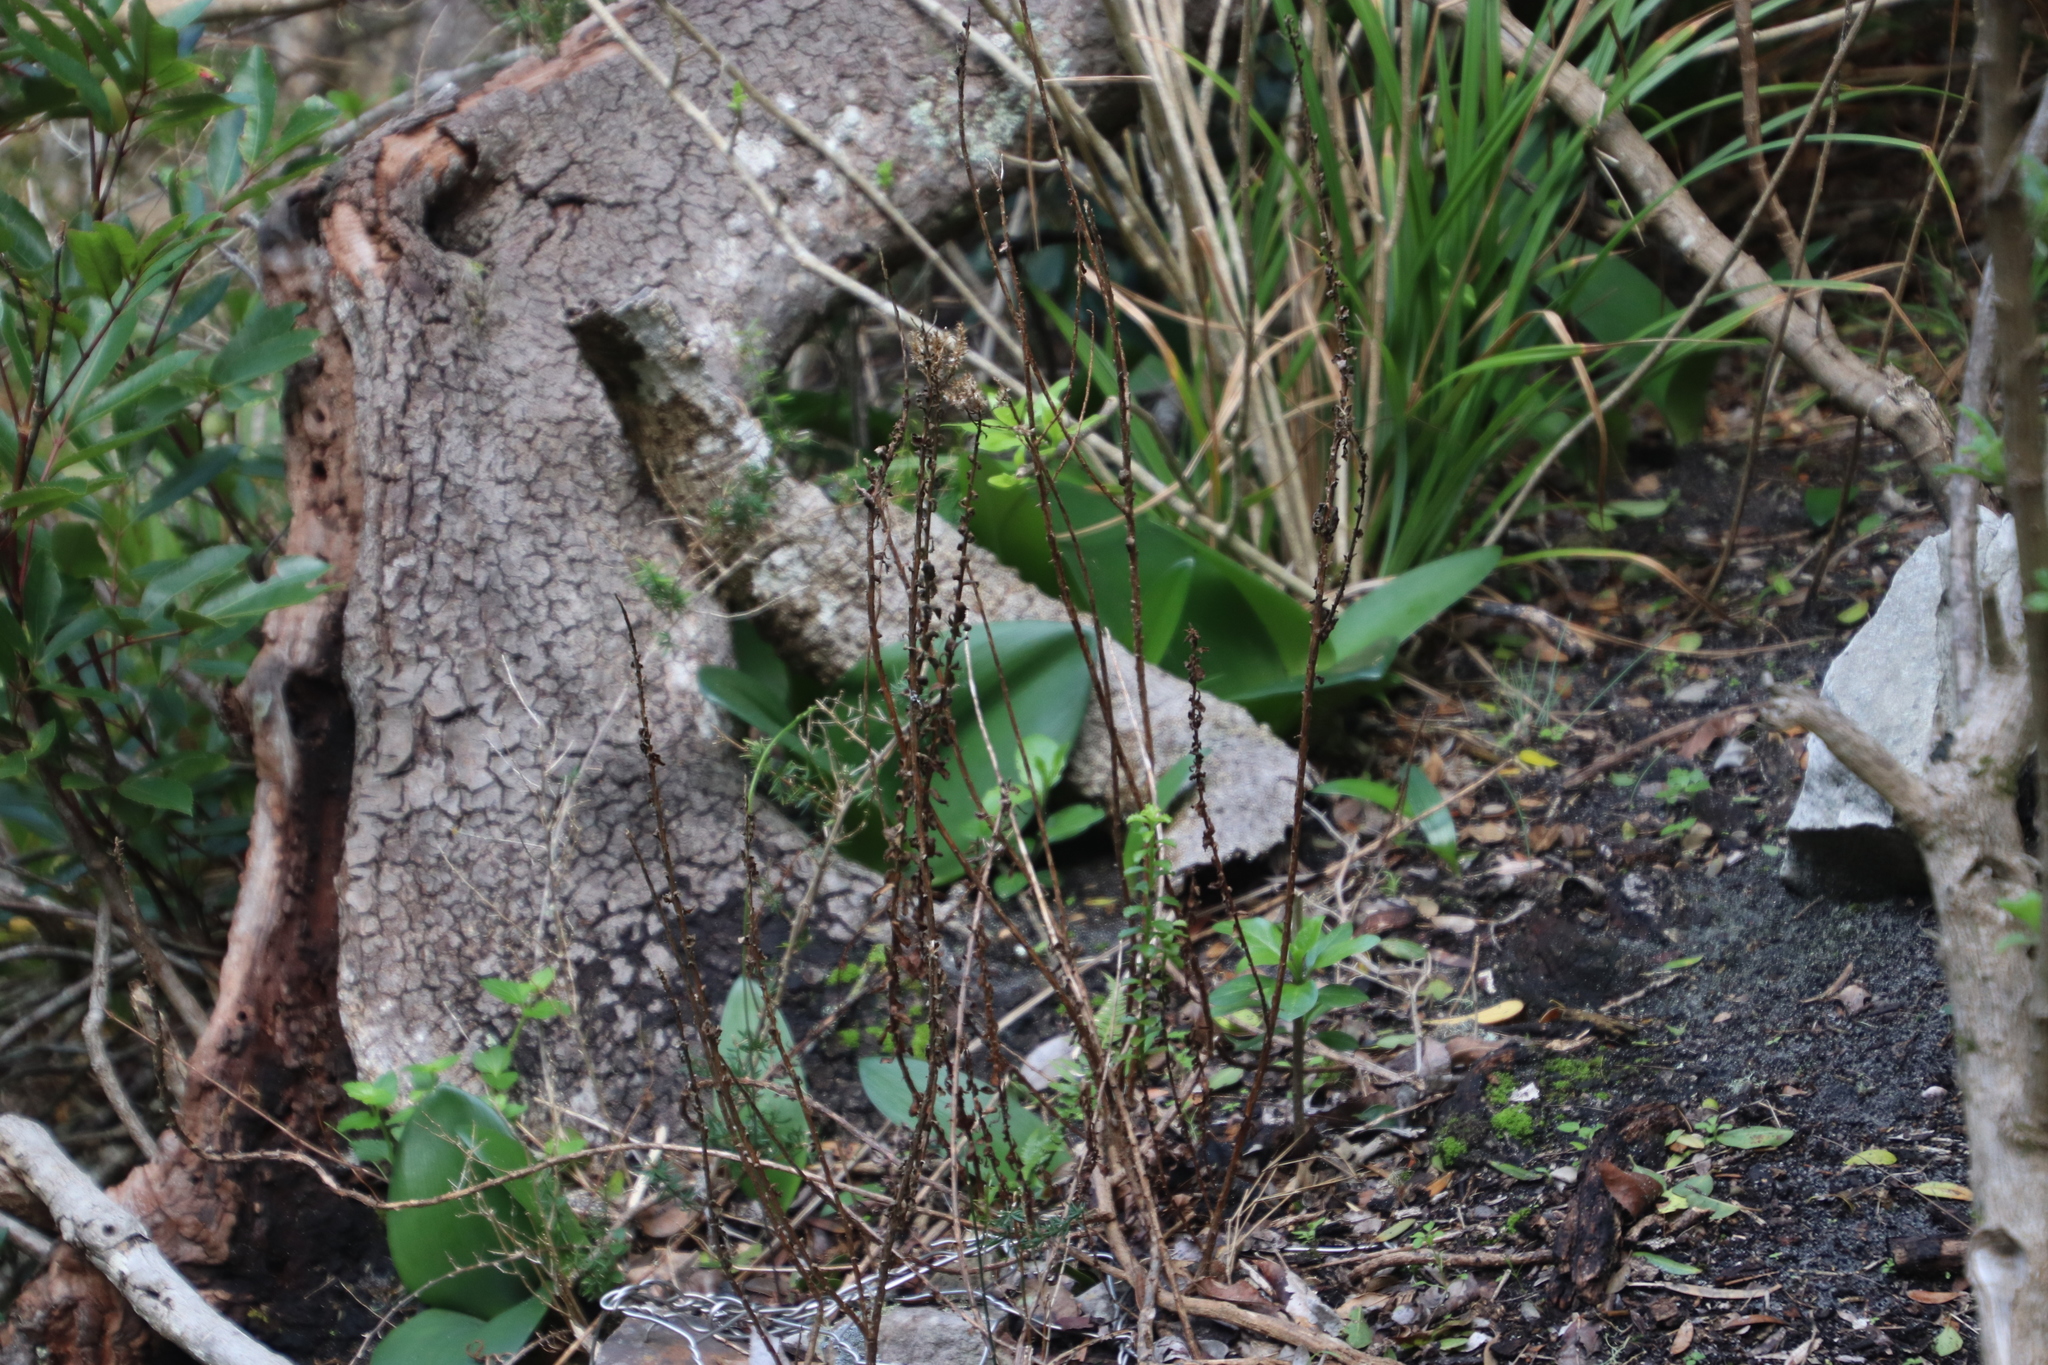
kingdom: Plantae
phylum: Tracheophyta
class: Liliopsida
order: Asparagales
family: Amaryllidaceae
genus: Haemanthus
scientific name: Haemanthus coccineus
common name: Cape-tulip
